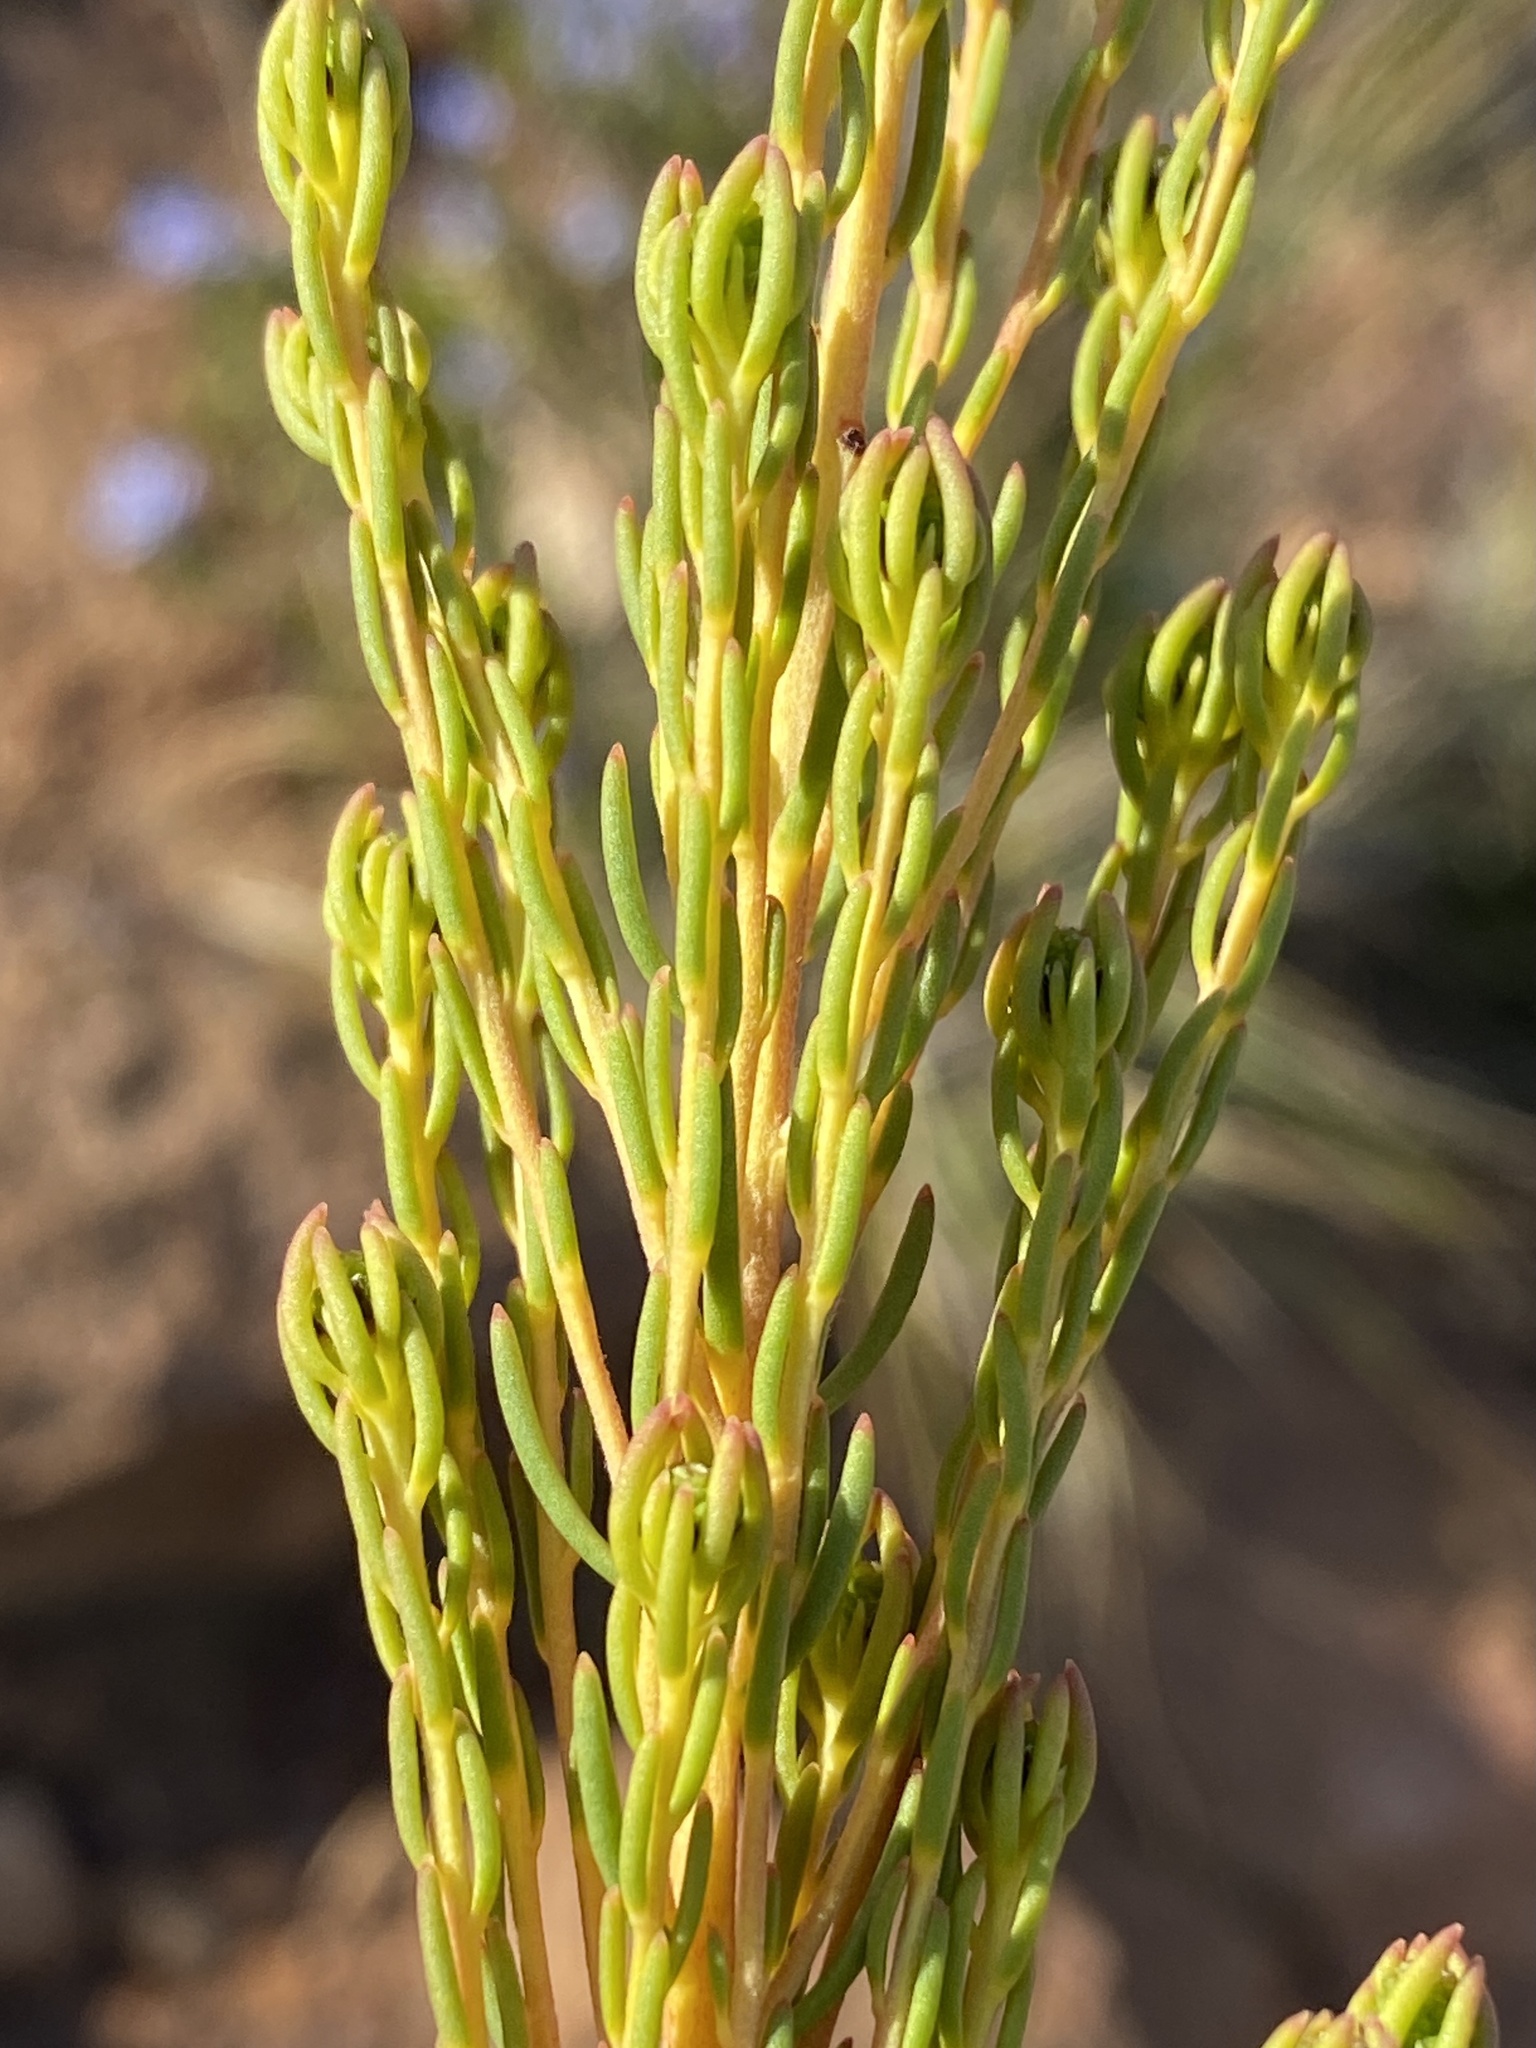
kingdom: Plantae
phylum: Tracheophyta
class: Magnoliopsida
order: Proteales
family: Proteaceae
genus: Leucadendron
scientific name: Leucadendron teretifolium
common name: Needle-leaf conebush
